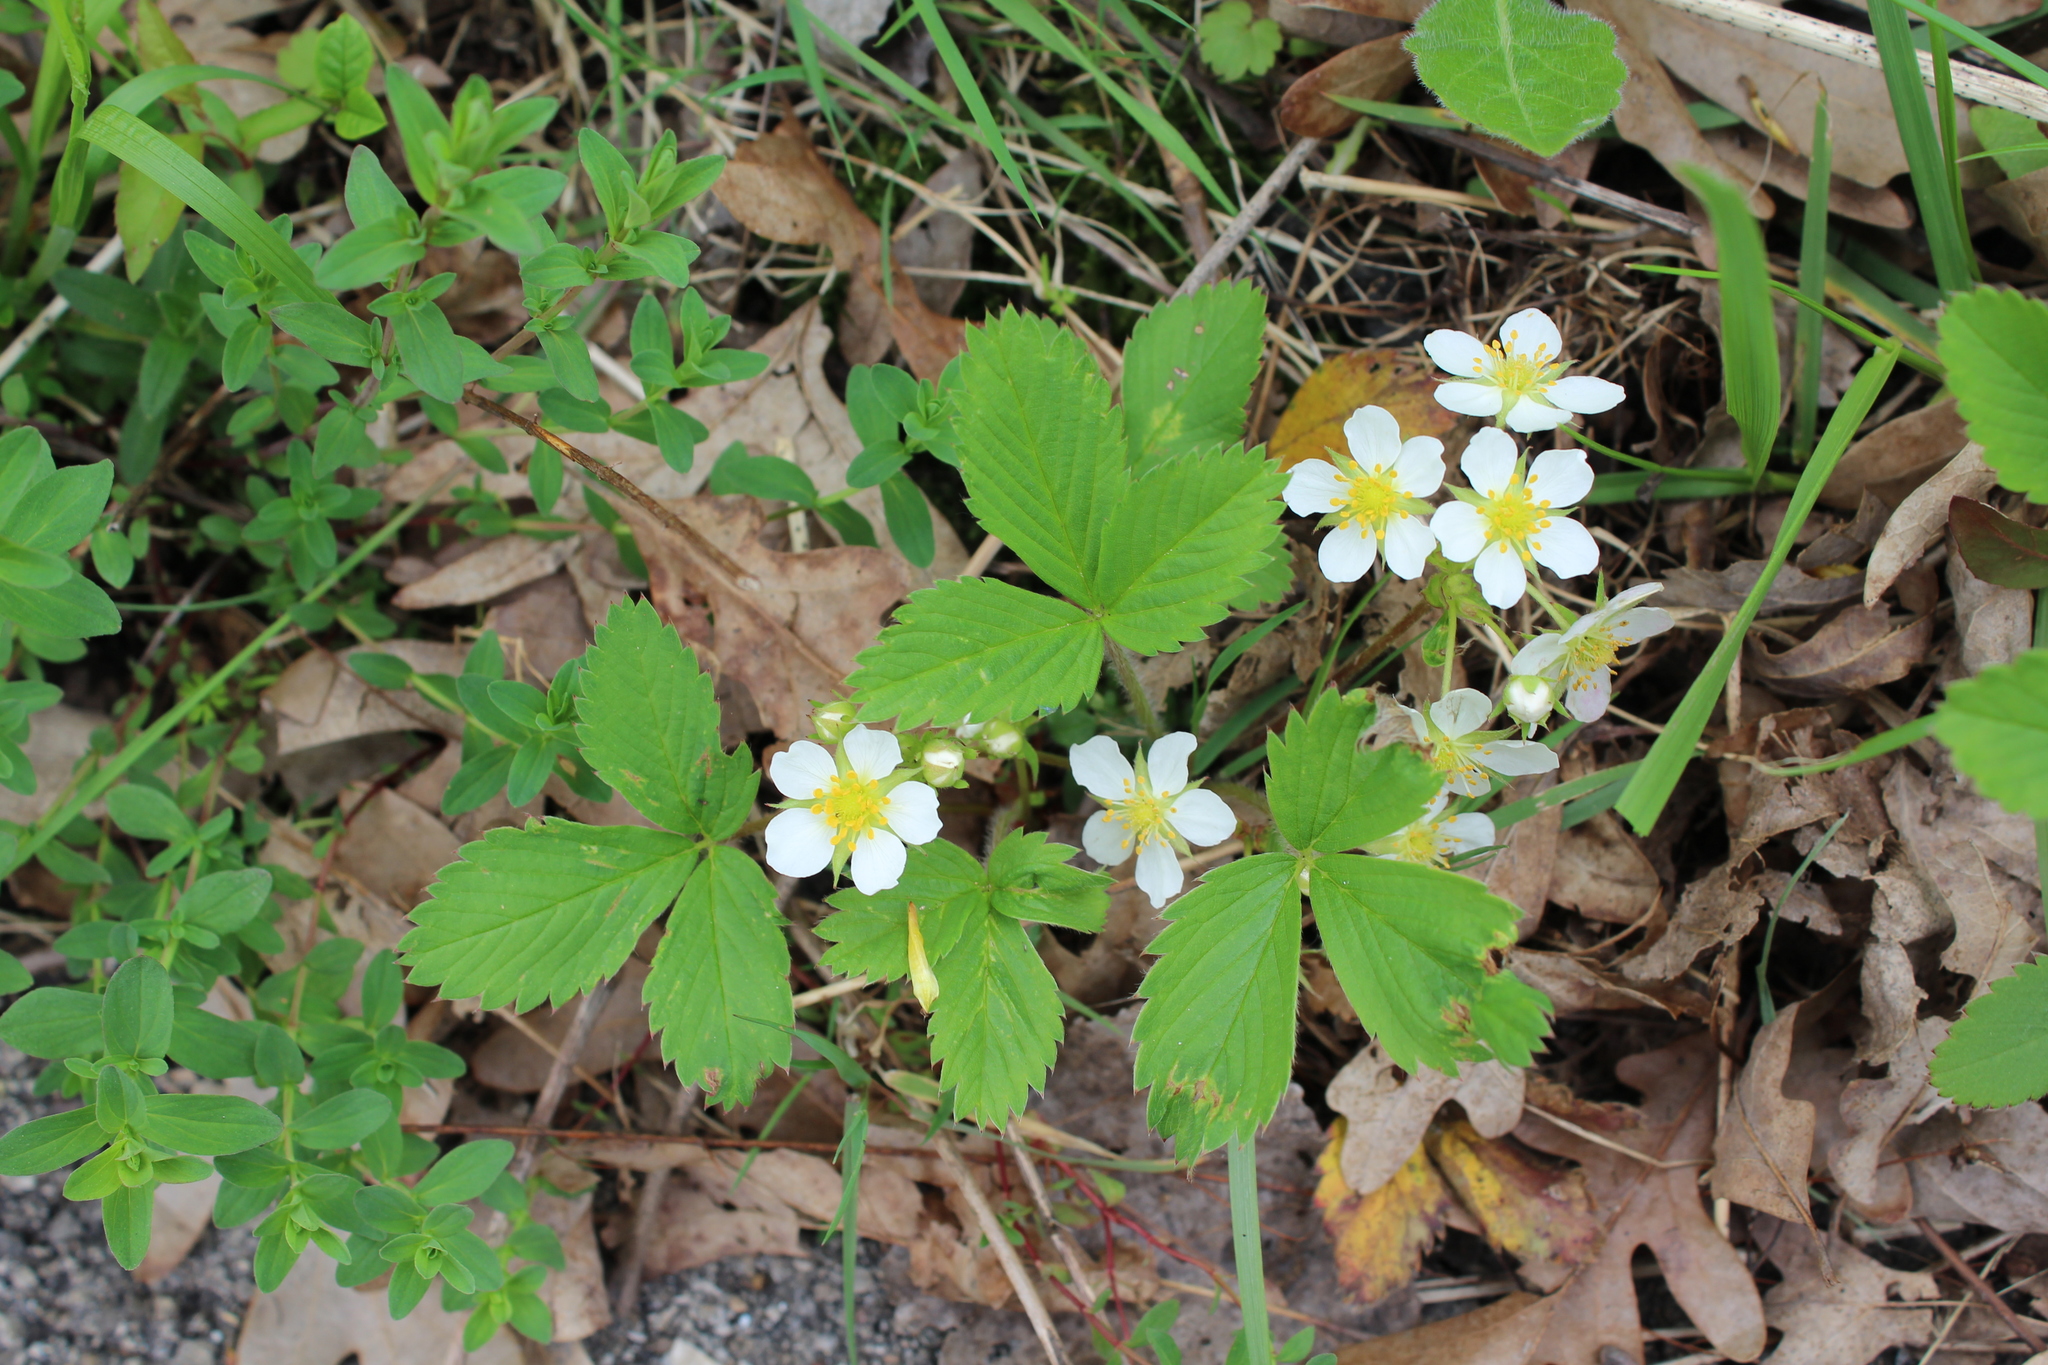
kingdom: Plantae
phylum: Tracheophyta
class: Magnoliopsida
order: Rosales
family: Rosaceae
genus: Fragaria
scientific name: Fragaria virginiana
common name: Thickleaved wild strawberry
